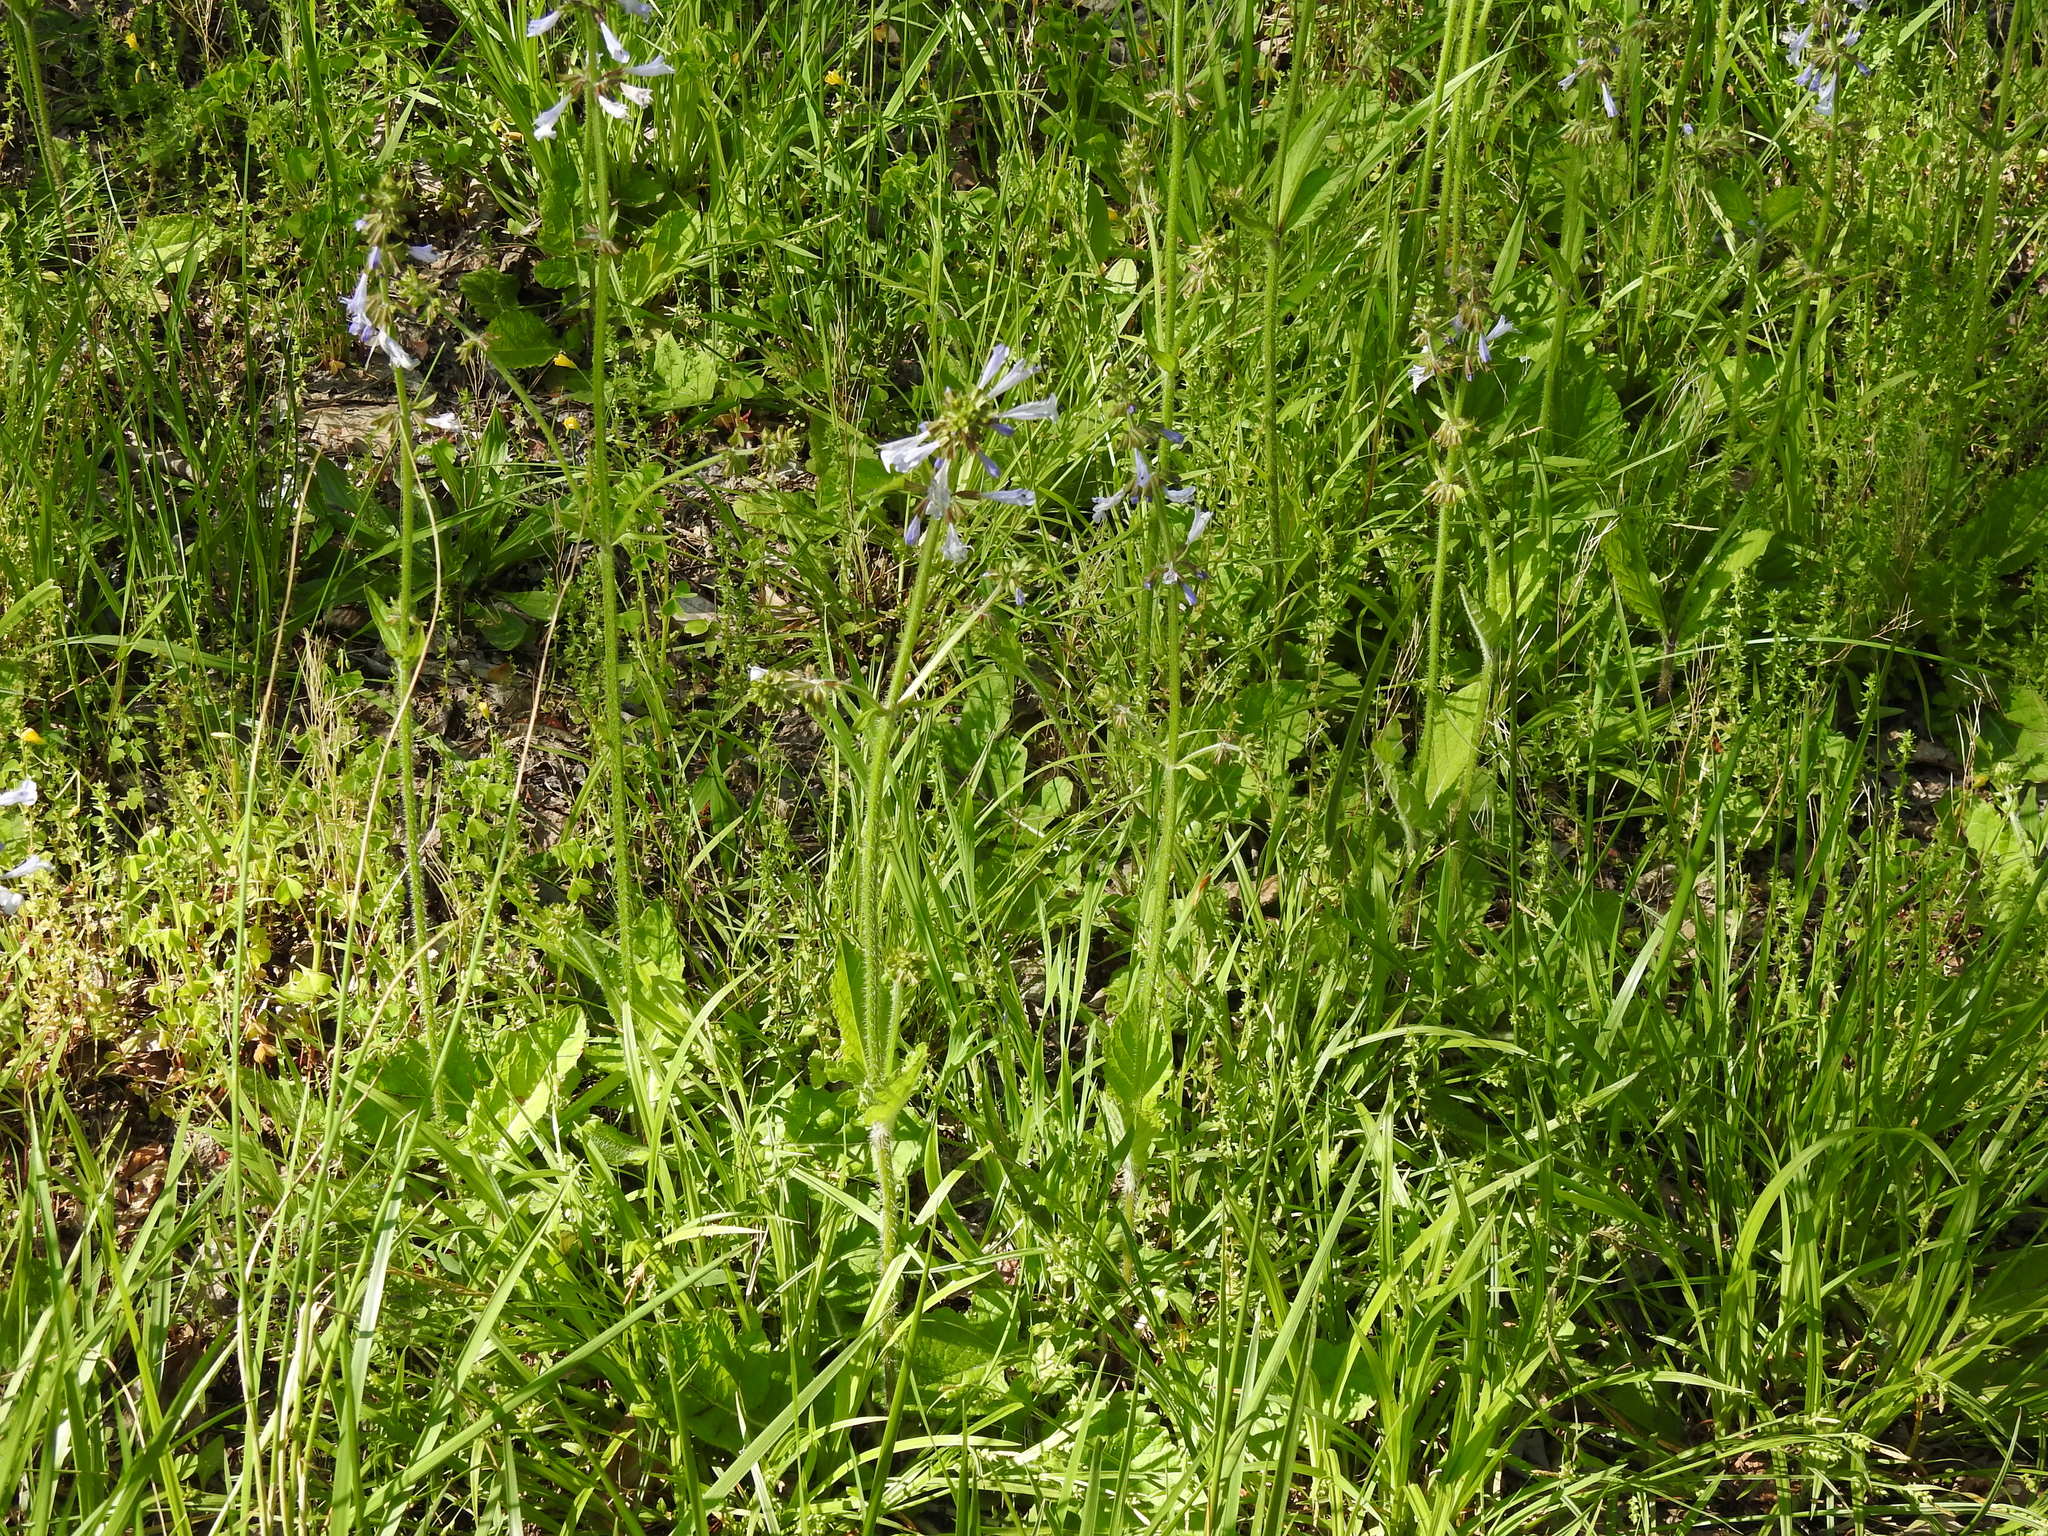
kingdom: Plantae
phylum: Tracheophyta
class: Magnoliopsida
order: Lamiales
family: Lamiaceae
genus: Salvia
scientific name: Salvia lyrata
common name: Cancerweed
